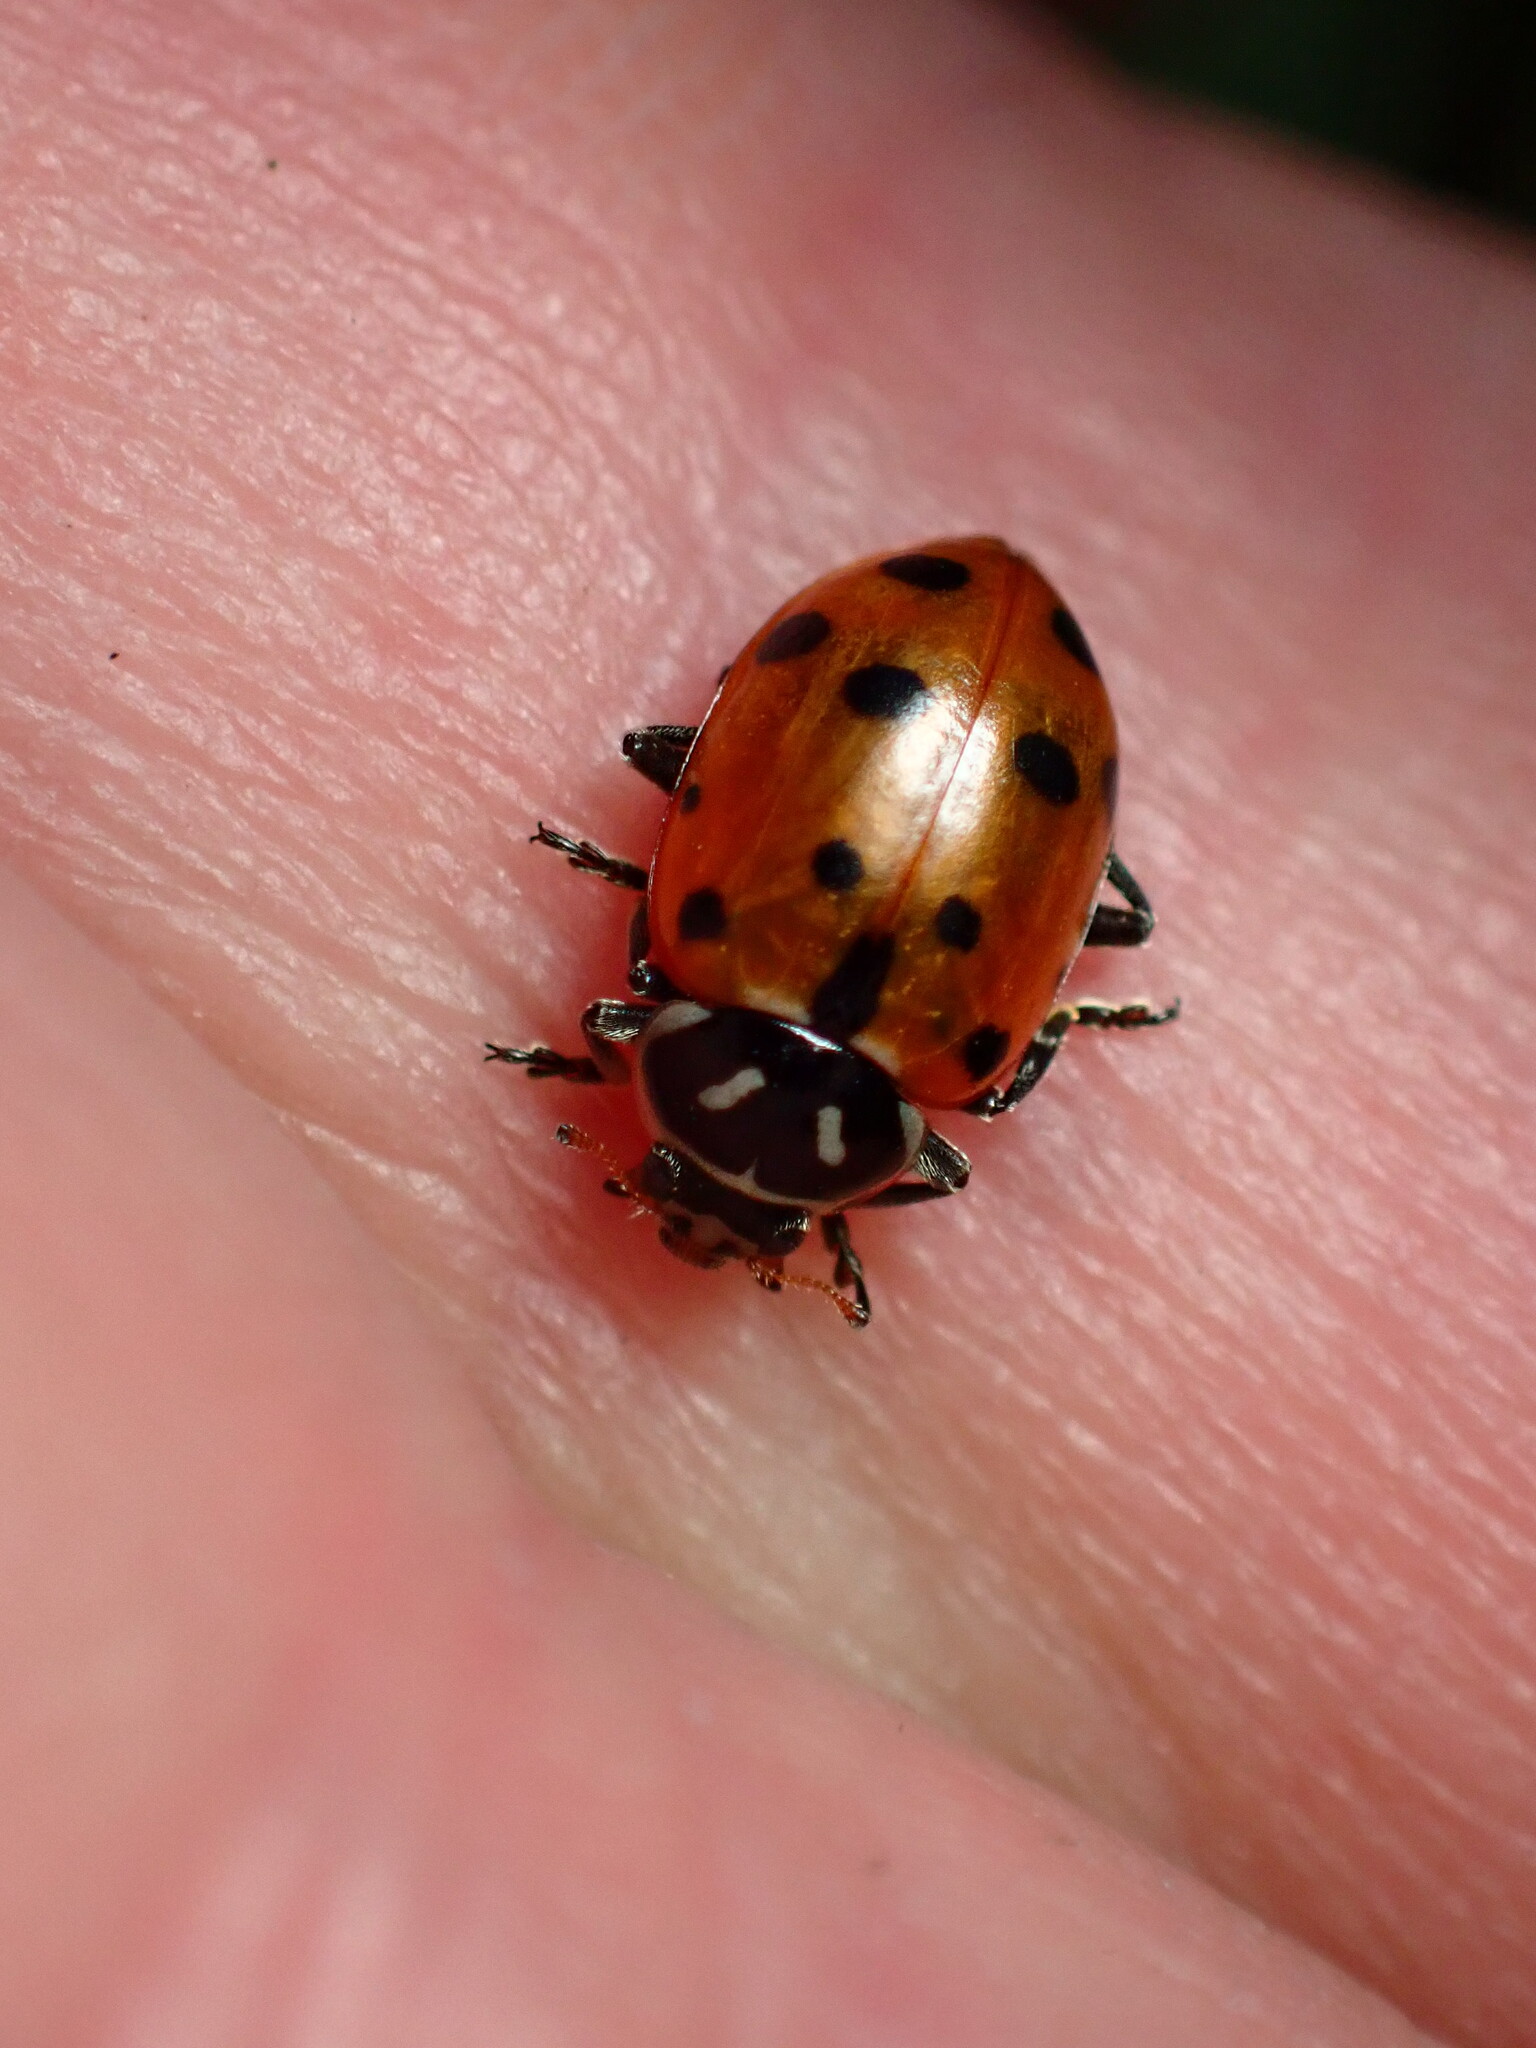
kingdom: Animalia
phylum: Arthropoda
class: Insecta
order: Coleoptera
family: Coccinellidae
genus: Hippodamia
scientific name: Hippodamia convergens
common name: Convergent lady beetle
